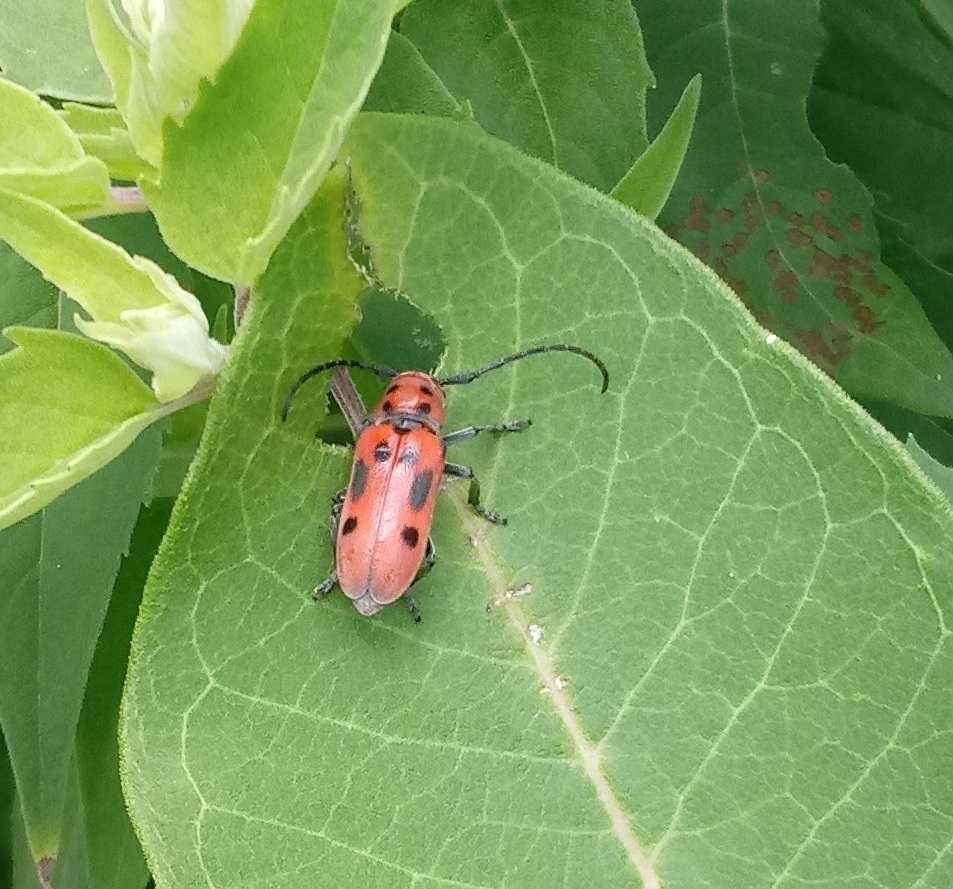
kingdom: Animalia
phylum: Arthropoda
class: Insecta
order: Coleoptera
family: Cerambycidae
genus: Tetraopes
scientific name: Tetraopes tetrophthalmus
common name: Red milkweed beetle
